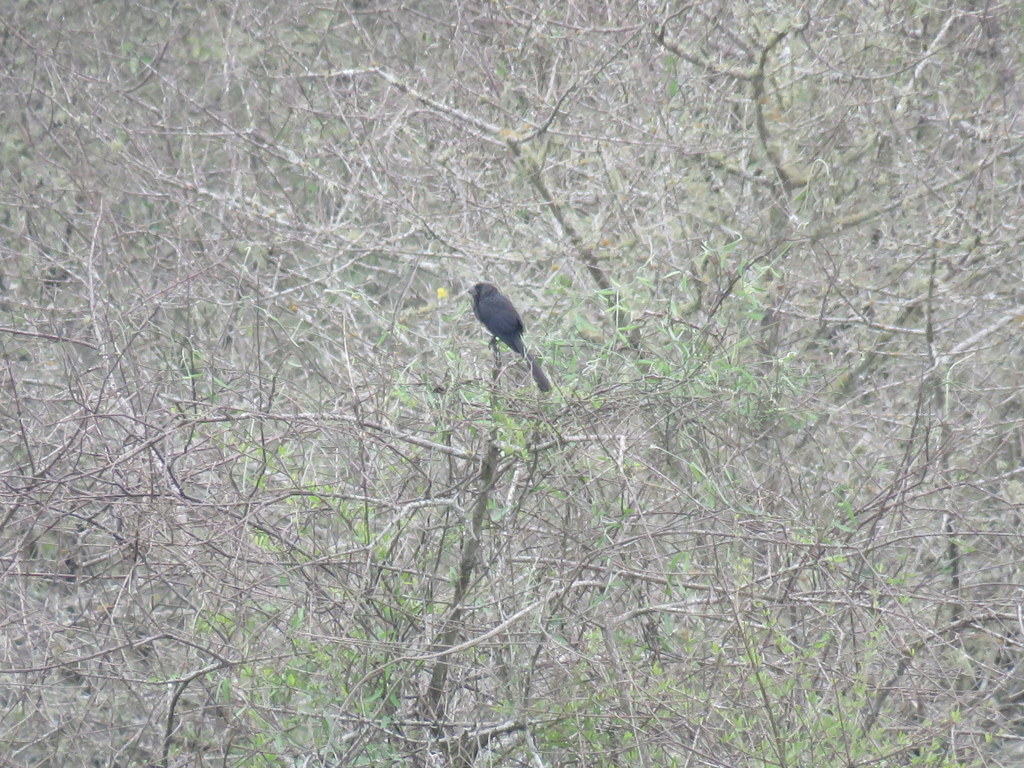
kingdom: Animalia
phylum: Chordata
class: Aves
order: Cuculiformes
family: Cuculidae
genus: Crotophaga
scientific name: Crotophaga ani
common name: Smooth-billed ani
